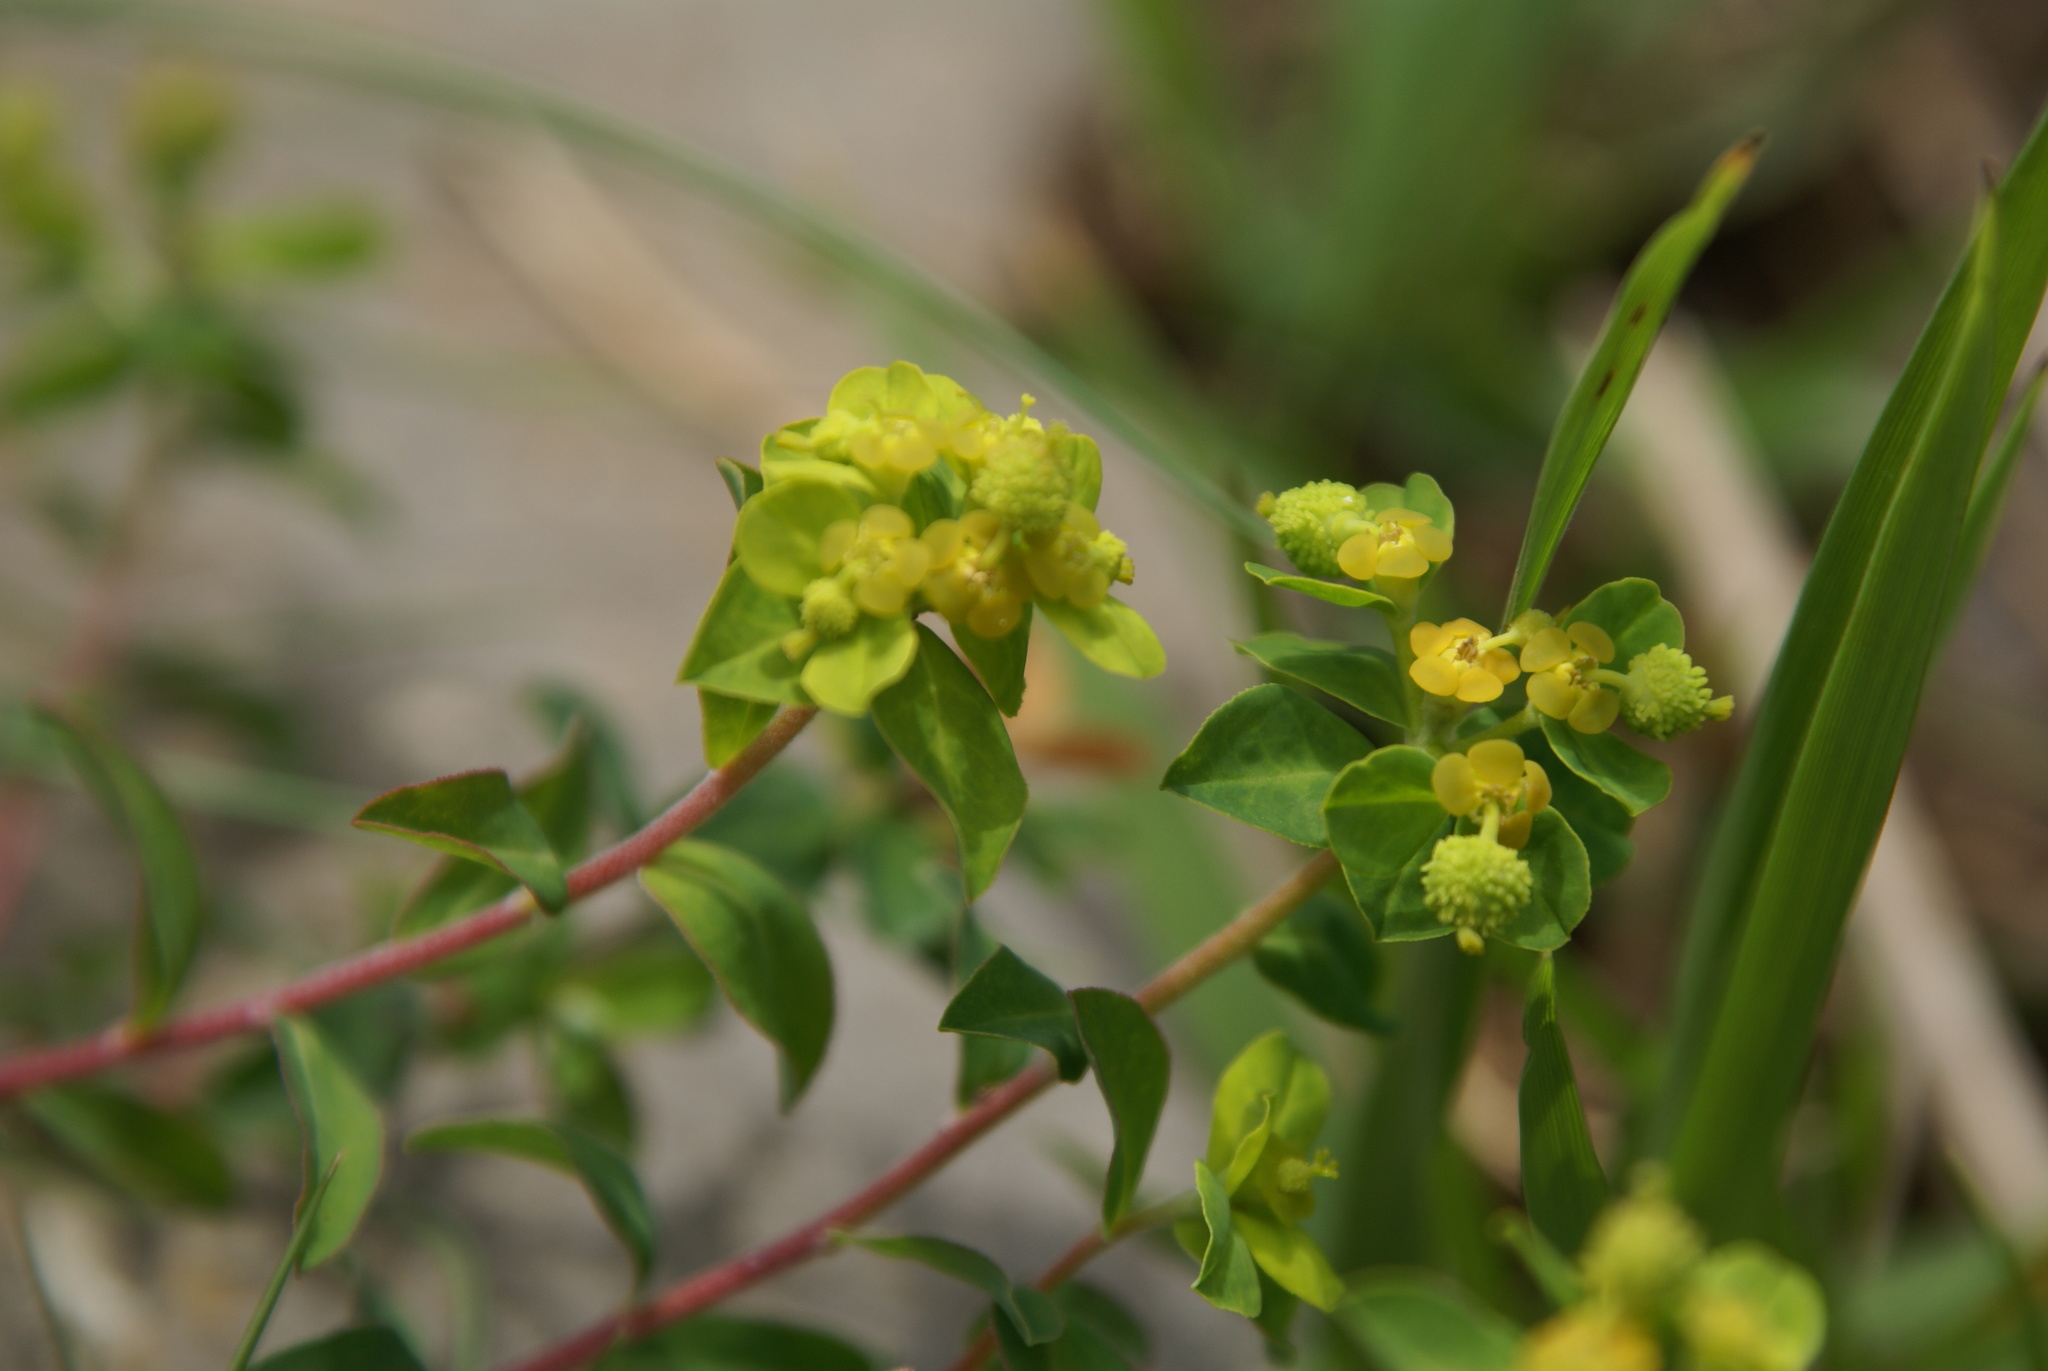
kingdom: Plantae
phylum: Tracheophyta
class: Magnoliopsida
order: Malpighiales
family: Euphorbiaceae
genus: Euphorbia
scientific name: Euphorbia flavicoma
